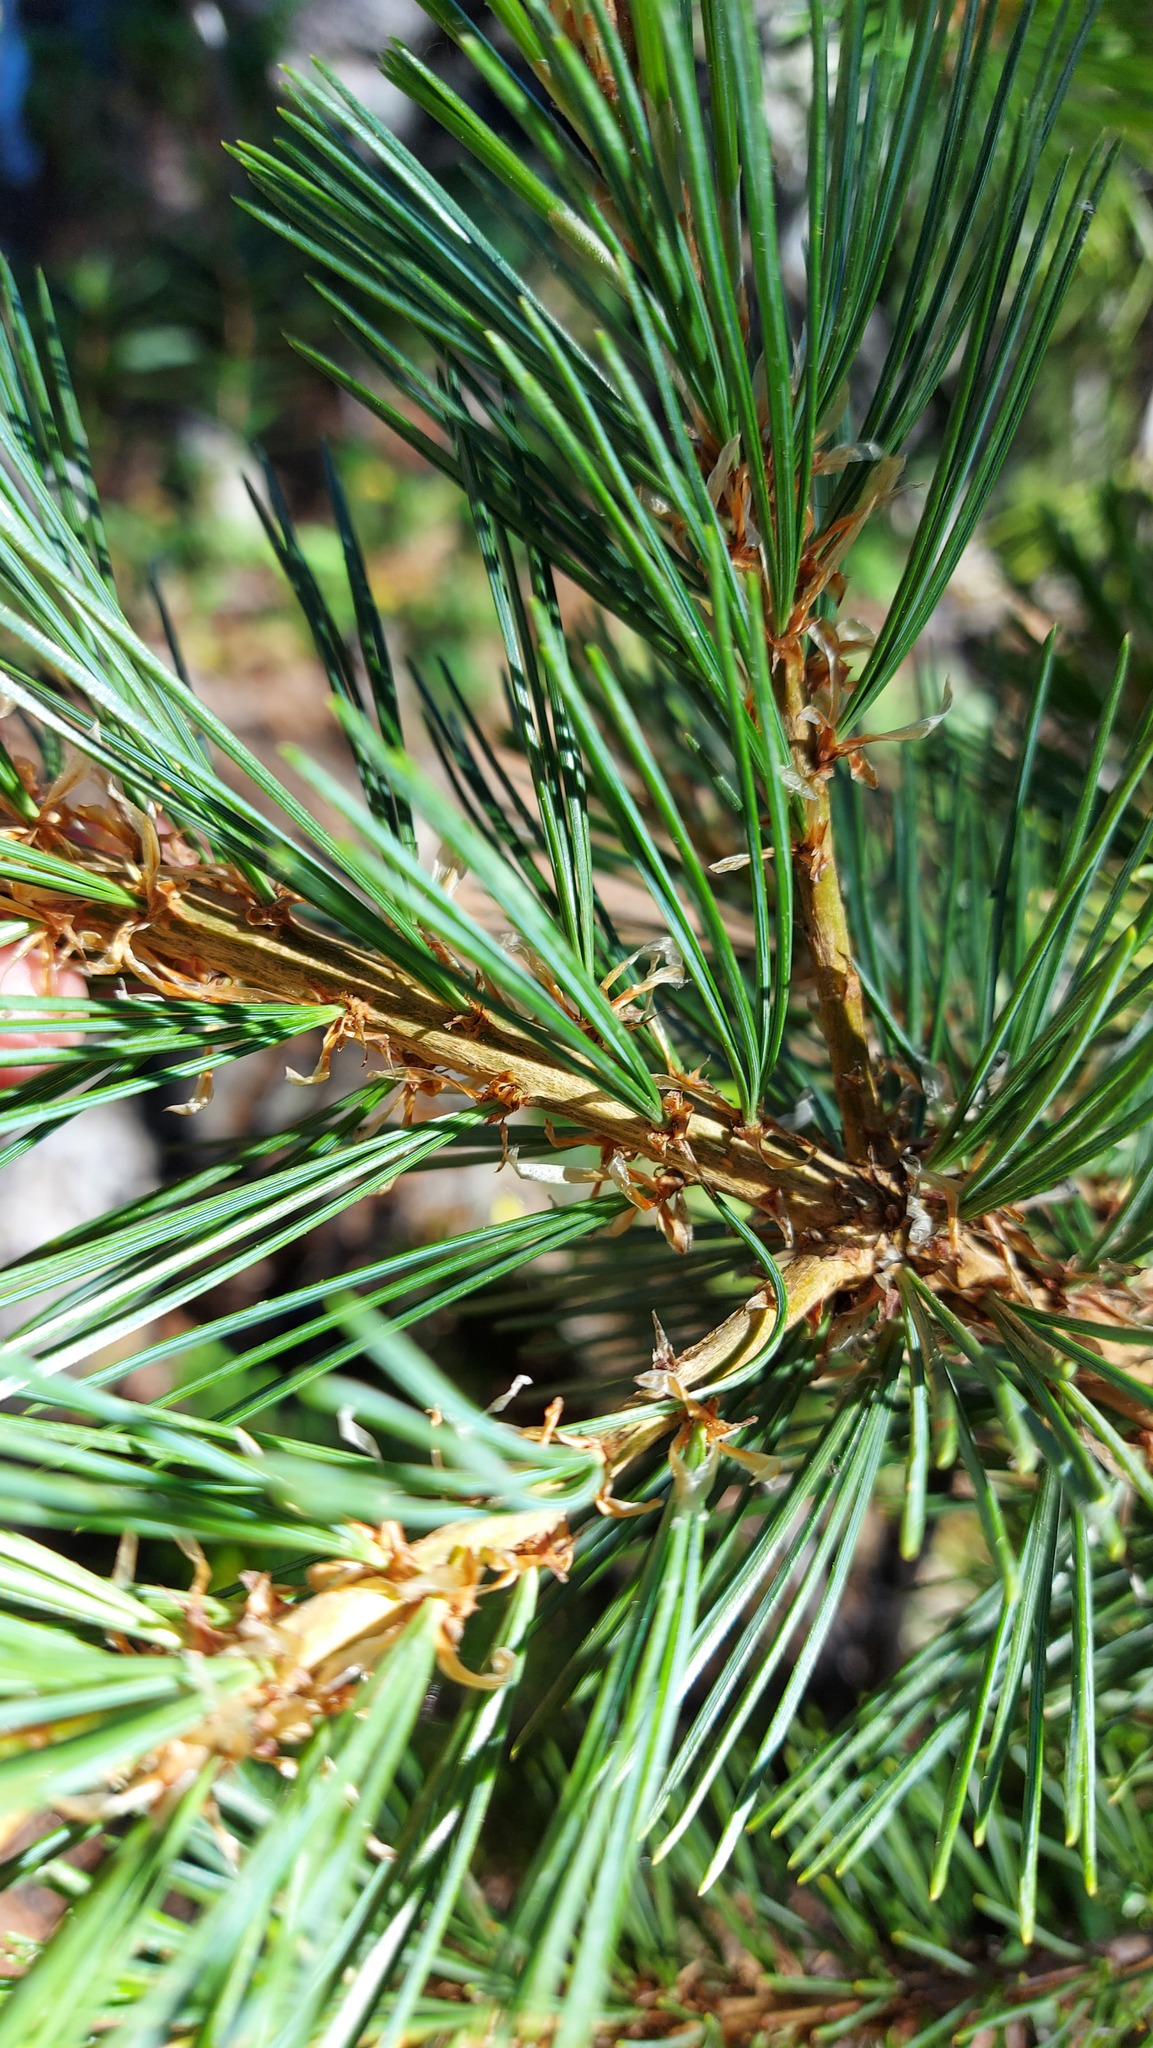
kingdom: Plantae
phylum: Tracheophyta
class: Pinopsida
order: Pinales
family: Pinaceae
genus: Pinus
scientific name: Pinus albicaulis
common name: Whitebark pine
